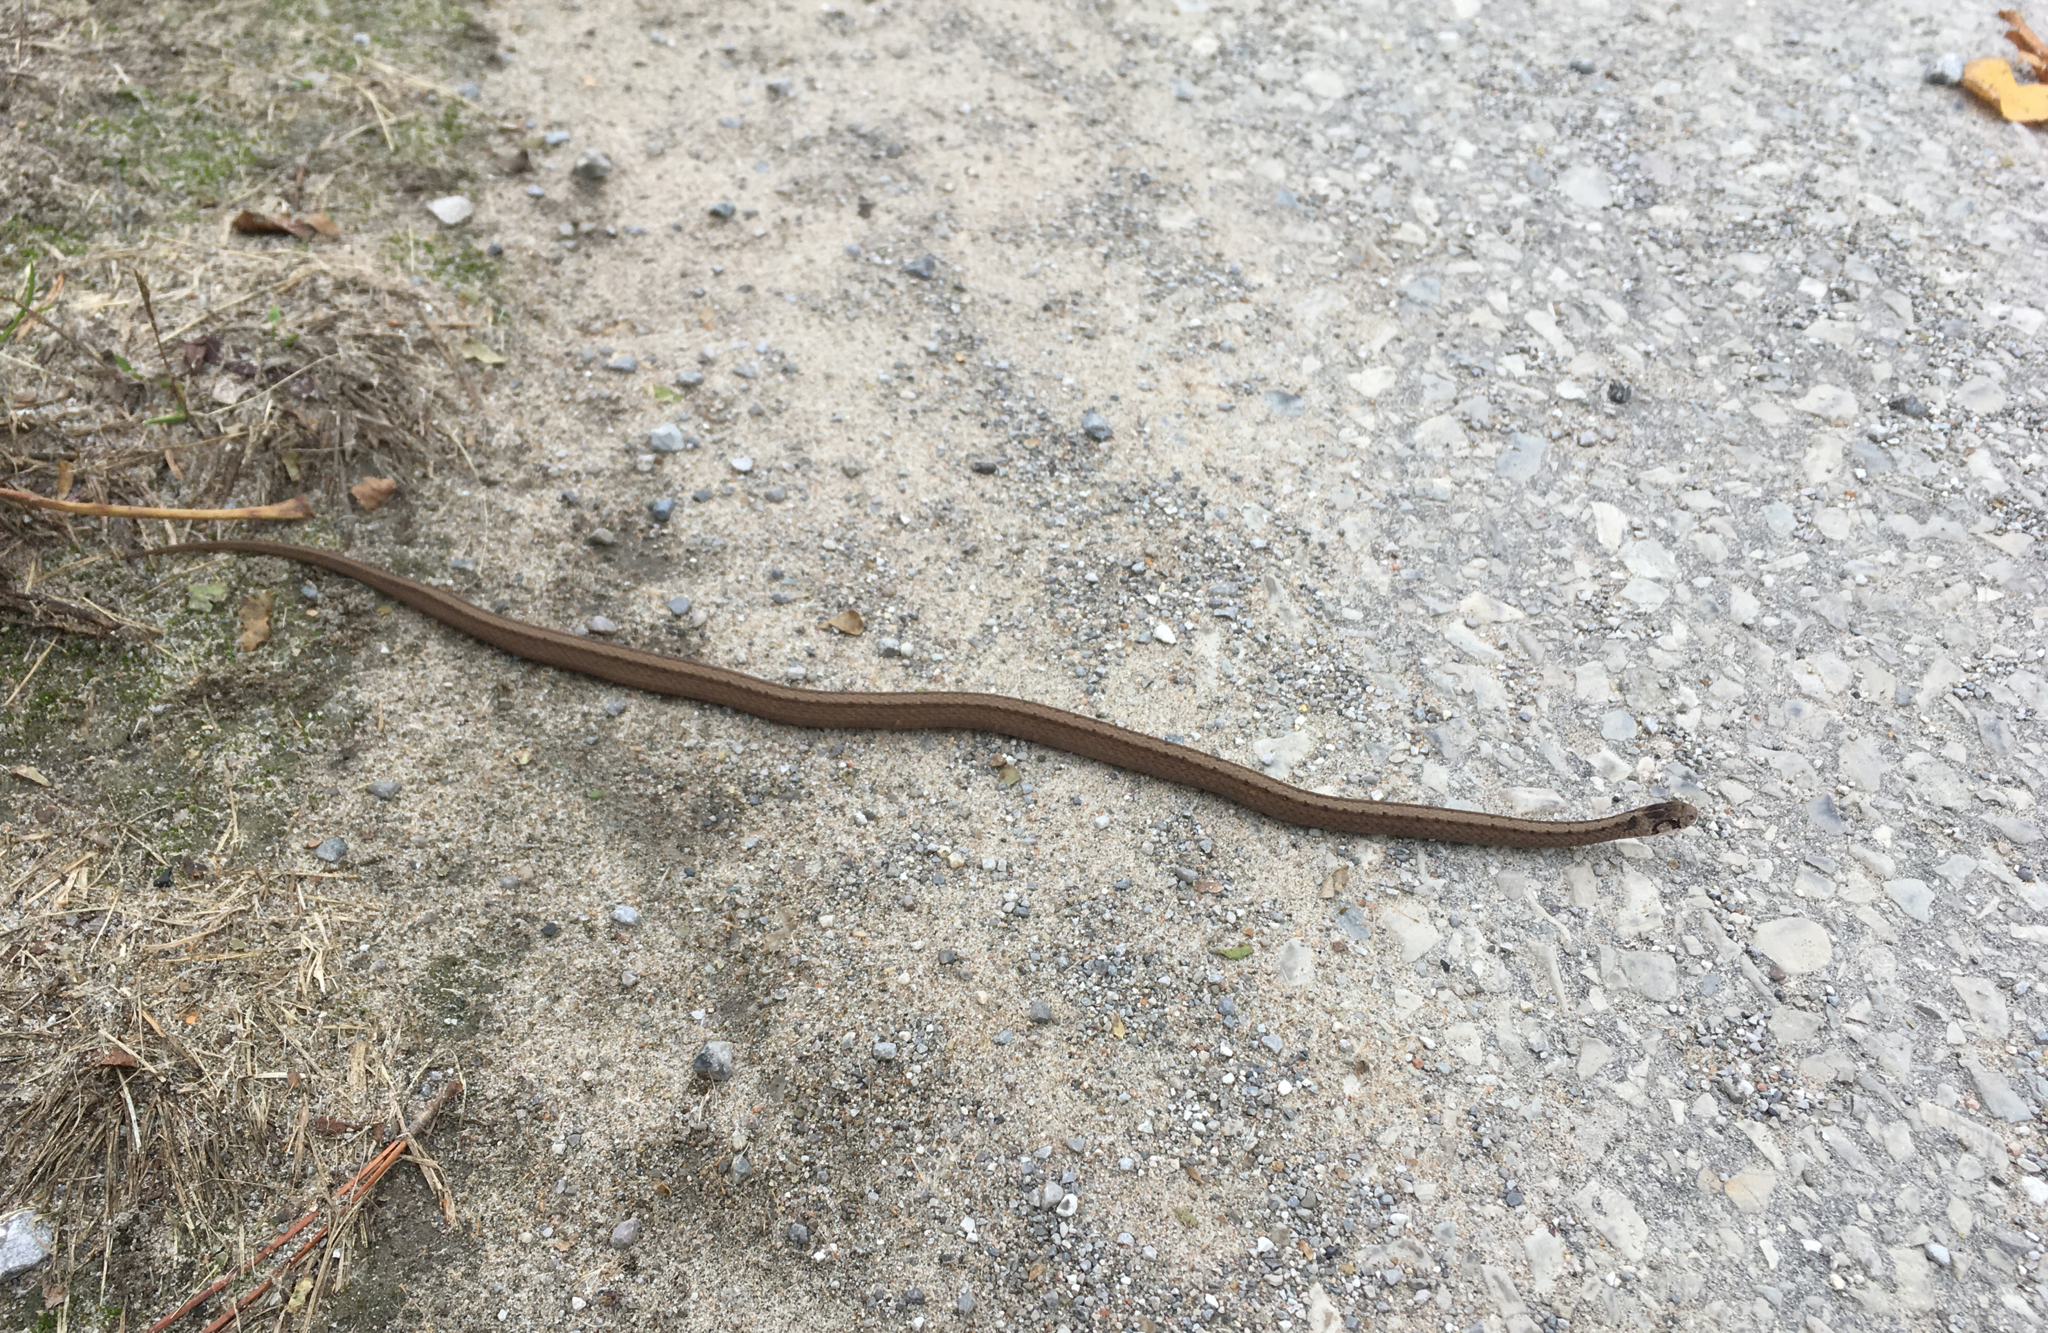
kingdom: Animalia
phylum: Chordata
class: Squamata
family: Colubridae
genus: Storeria
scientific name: Storeria dekayi
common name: (dekay’s) brown snake
